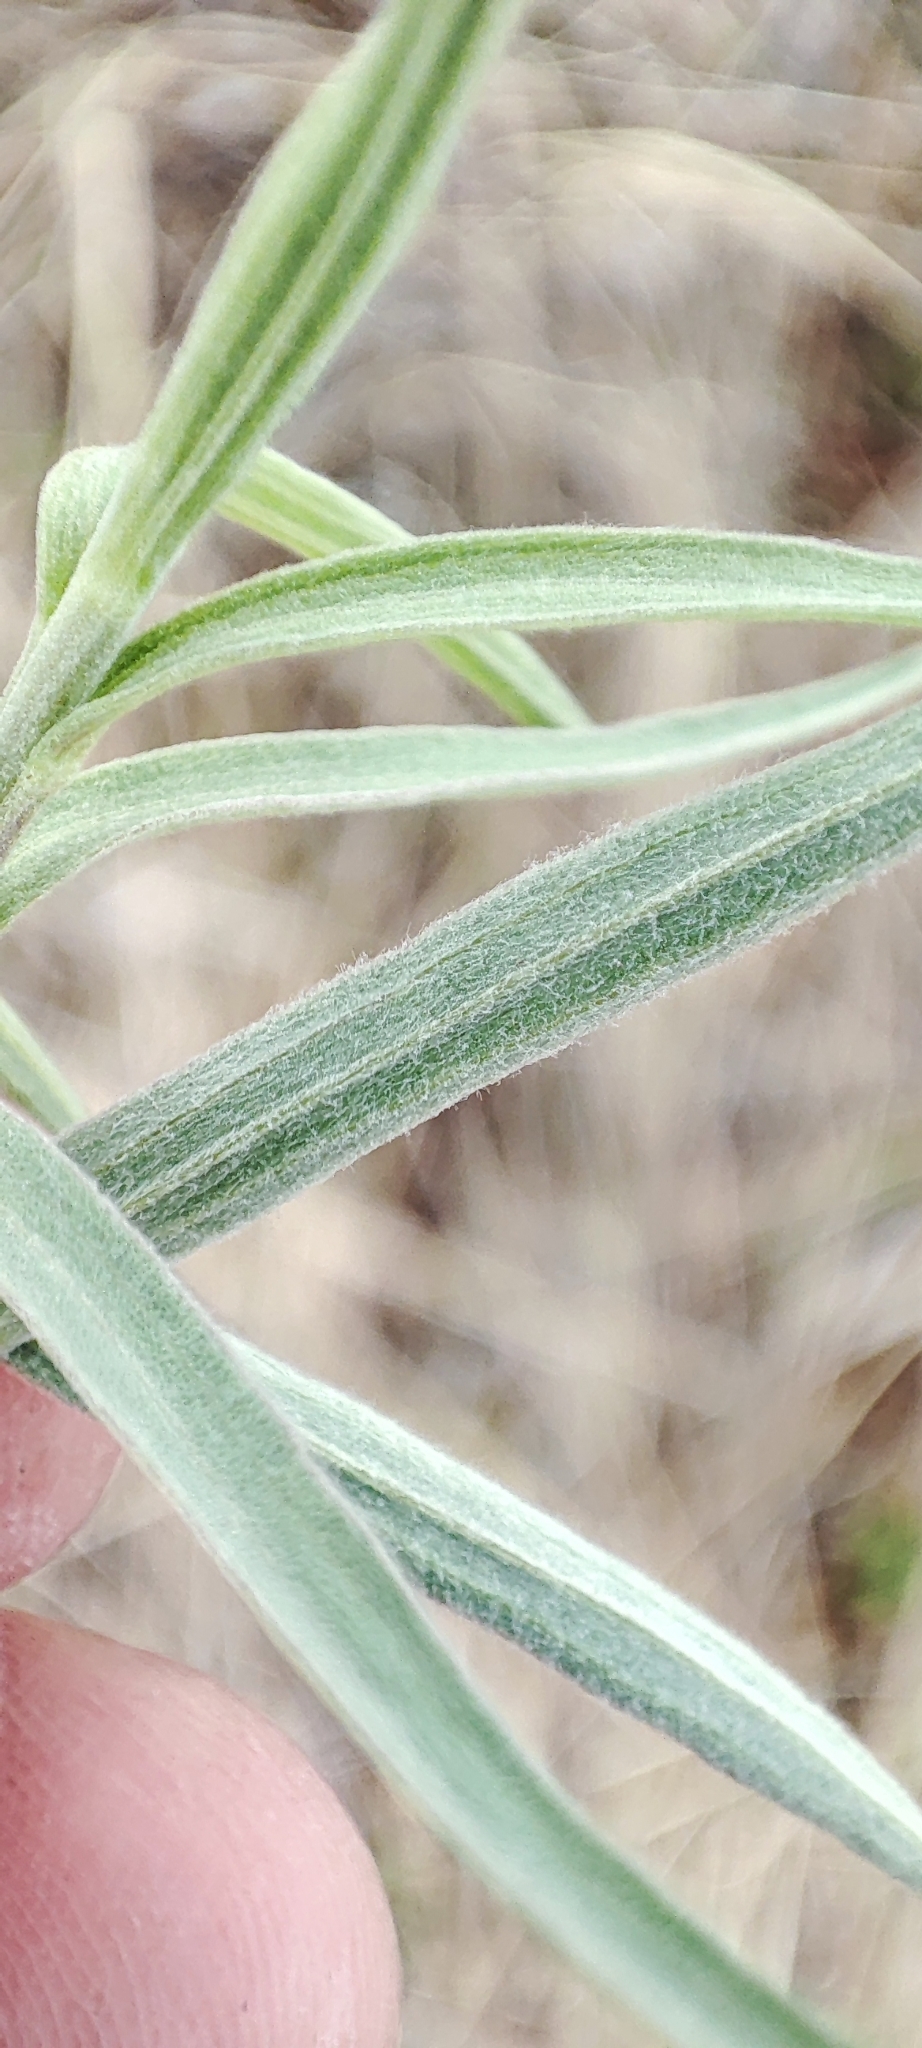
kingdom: Plantae
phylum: Tracheophyta
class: Magnoliopsida
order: Asterales
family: Asteraceae
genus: Artemisia
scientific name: Artemisia dracunculus
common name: Tarragon
